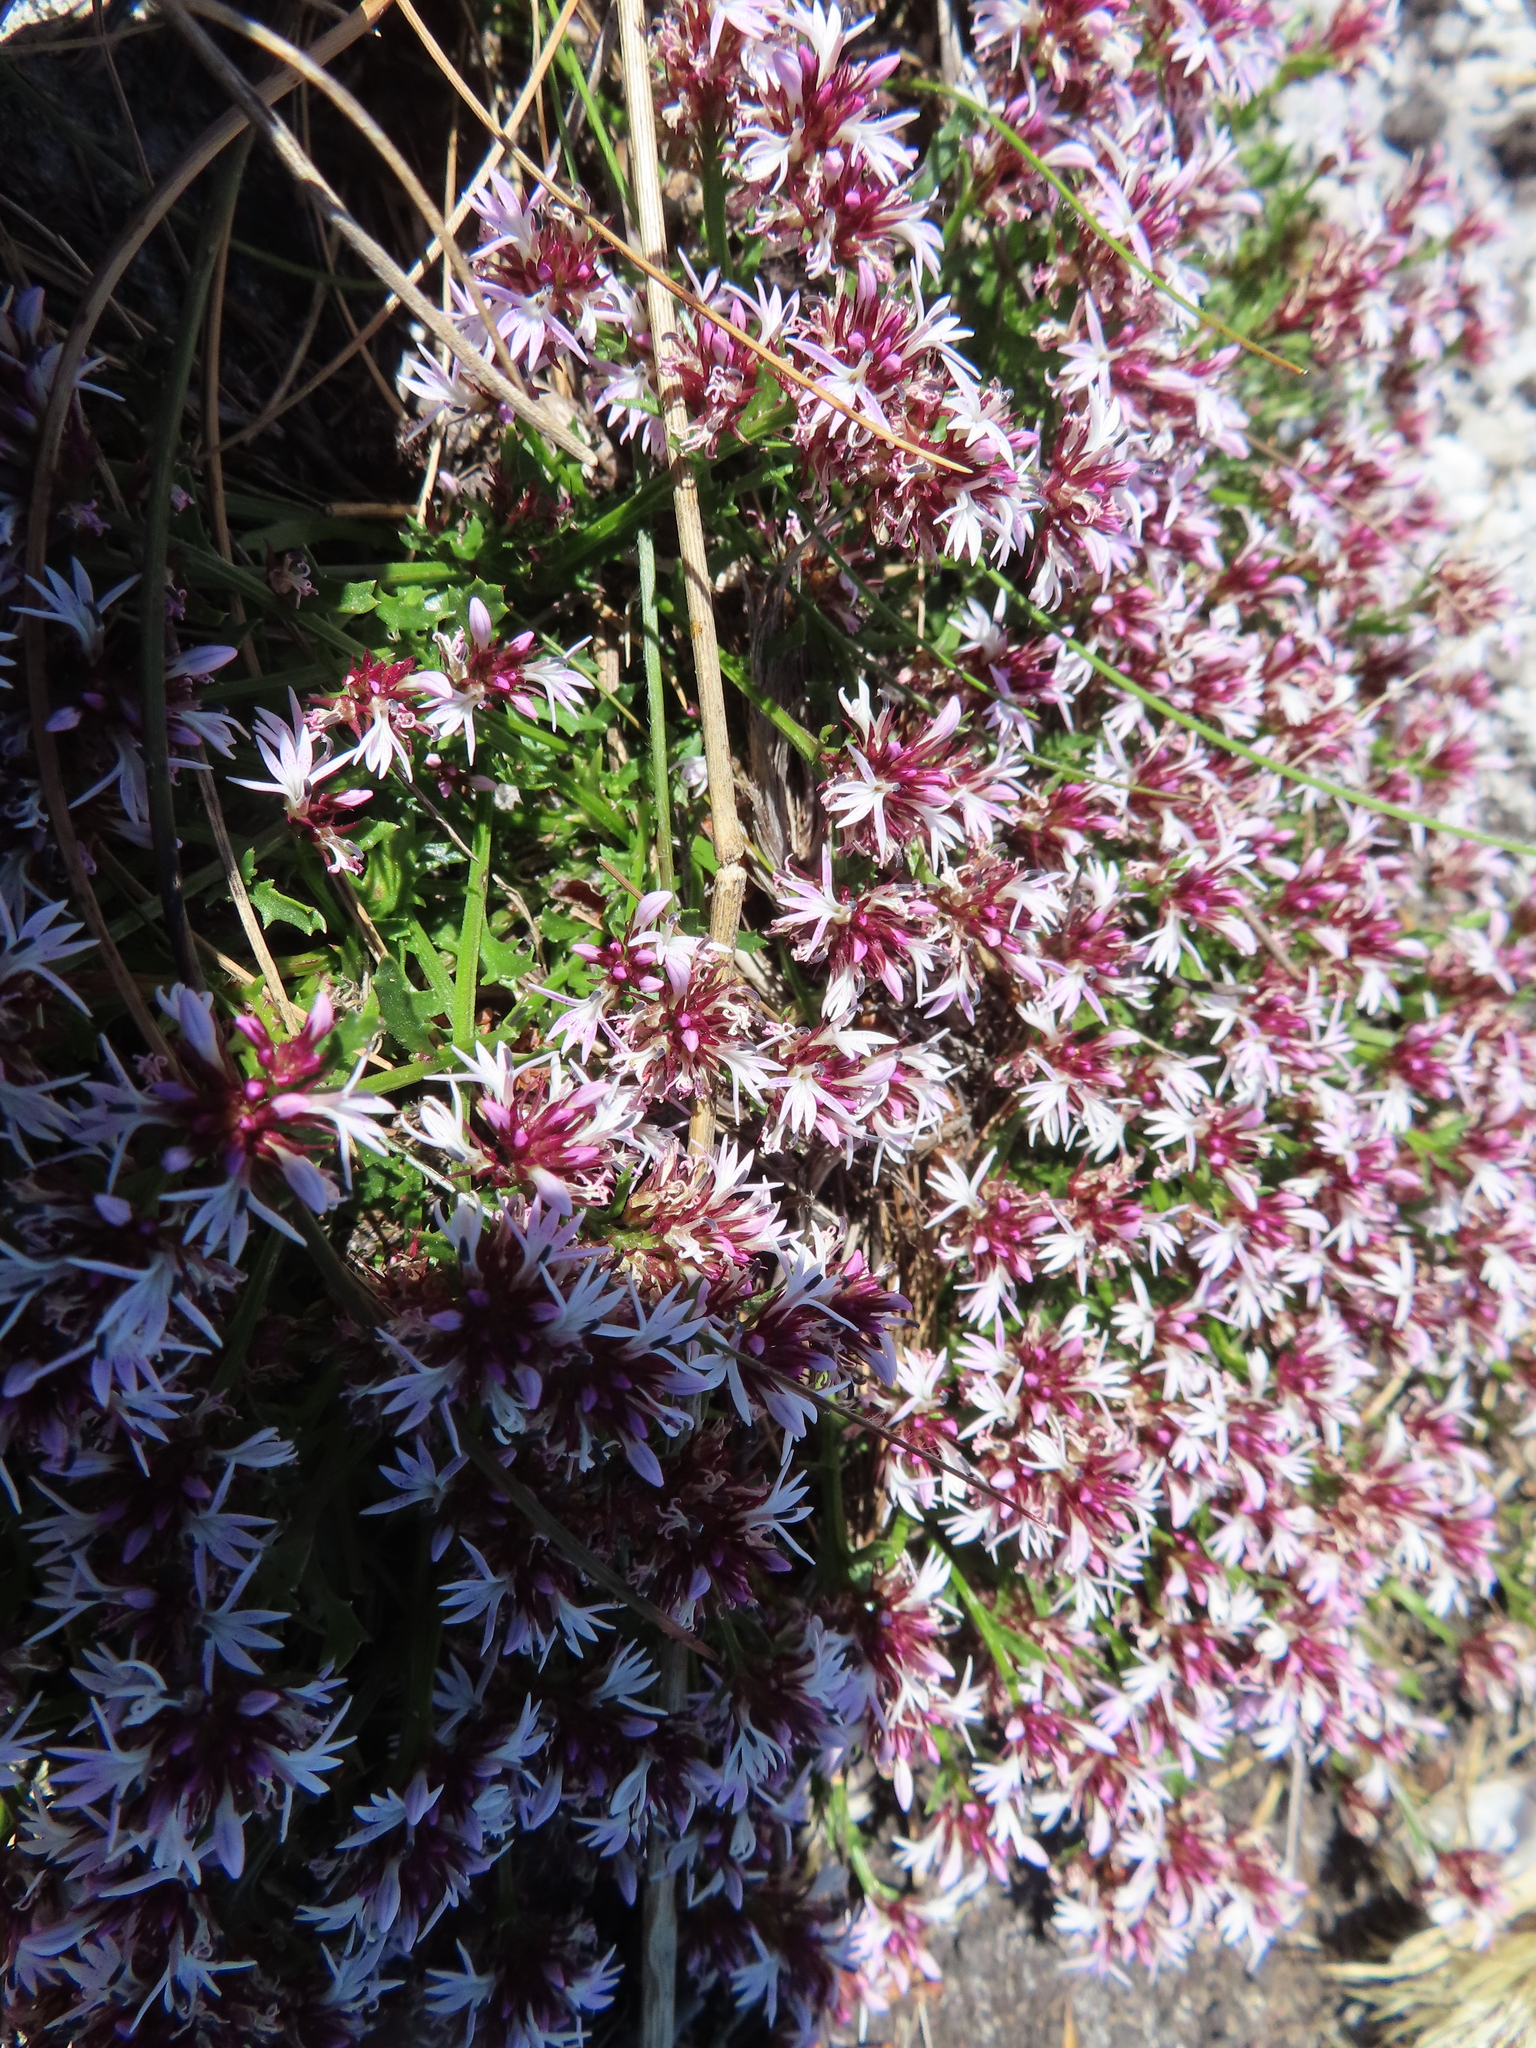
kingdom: Plantae
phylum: Tracheophyta
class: Magnoliopsida
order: Asterales
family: Campanulaceae
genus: Lobelia
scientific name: Lobelia jasionoides
